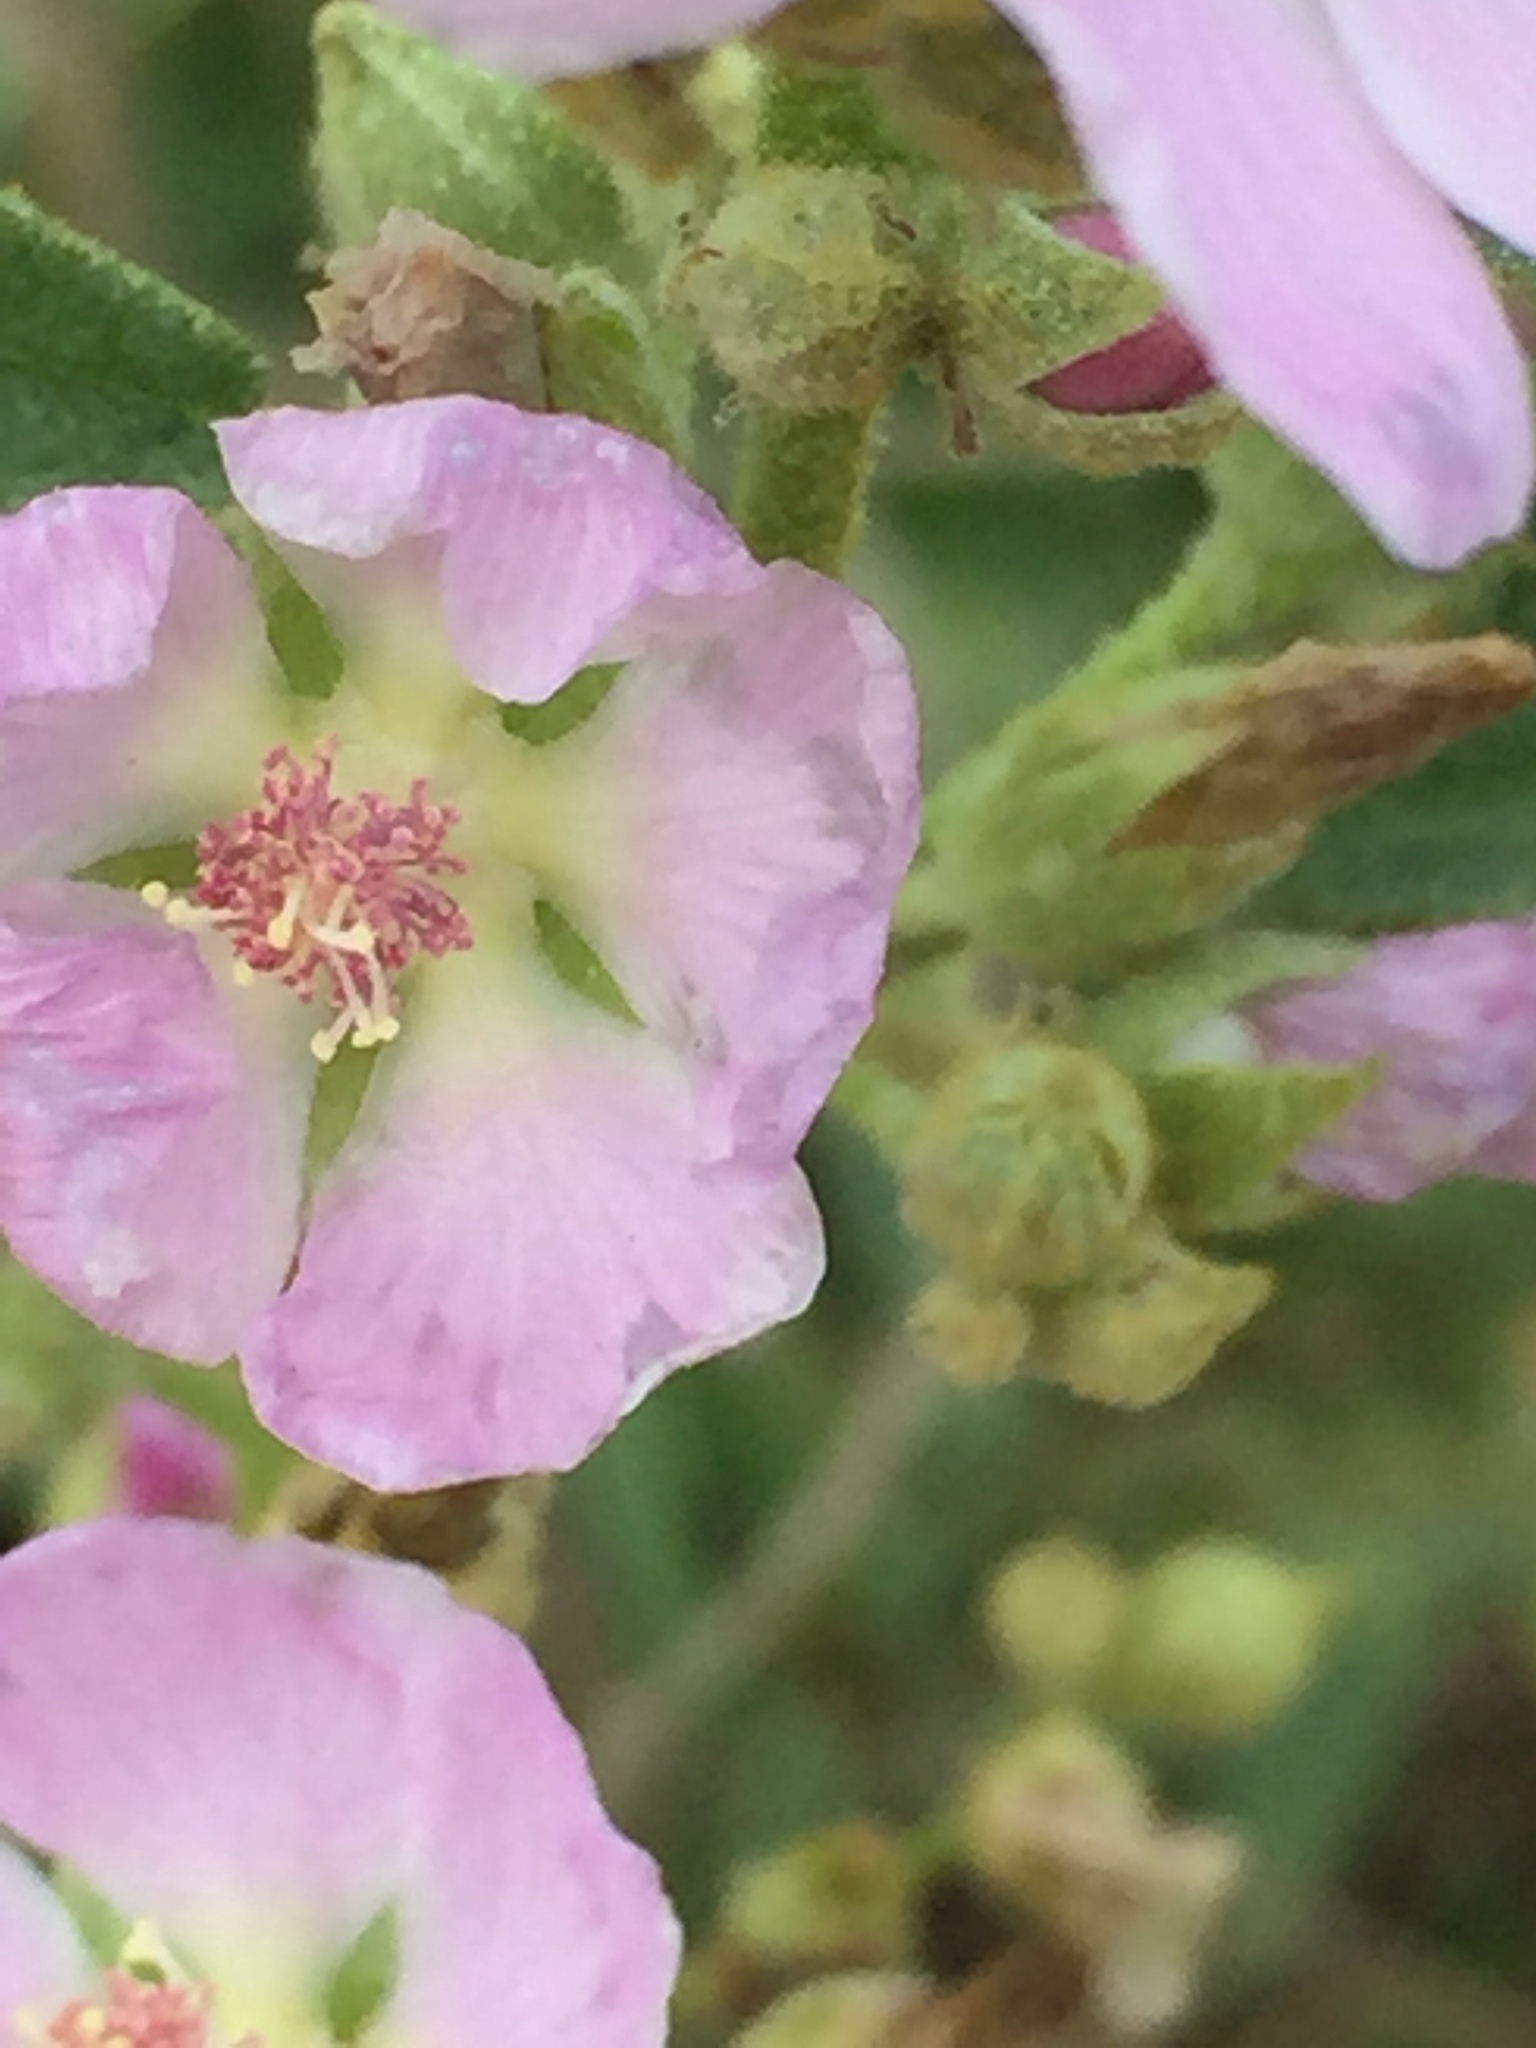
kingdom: Plantae
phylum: Tracheophyta
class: Magnoliopsida
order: Malvales
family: Malvaceae
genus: Sphaeralcea
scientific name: Sphaeralcea angustifolia
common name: Copper globe-mallow
